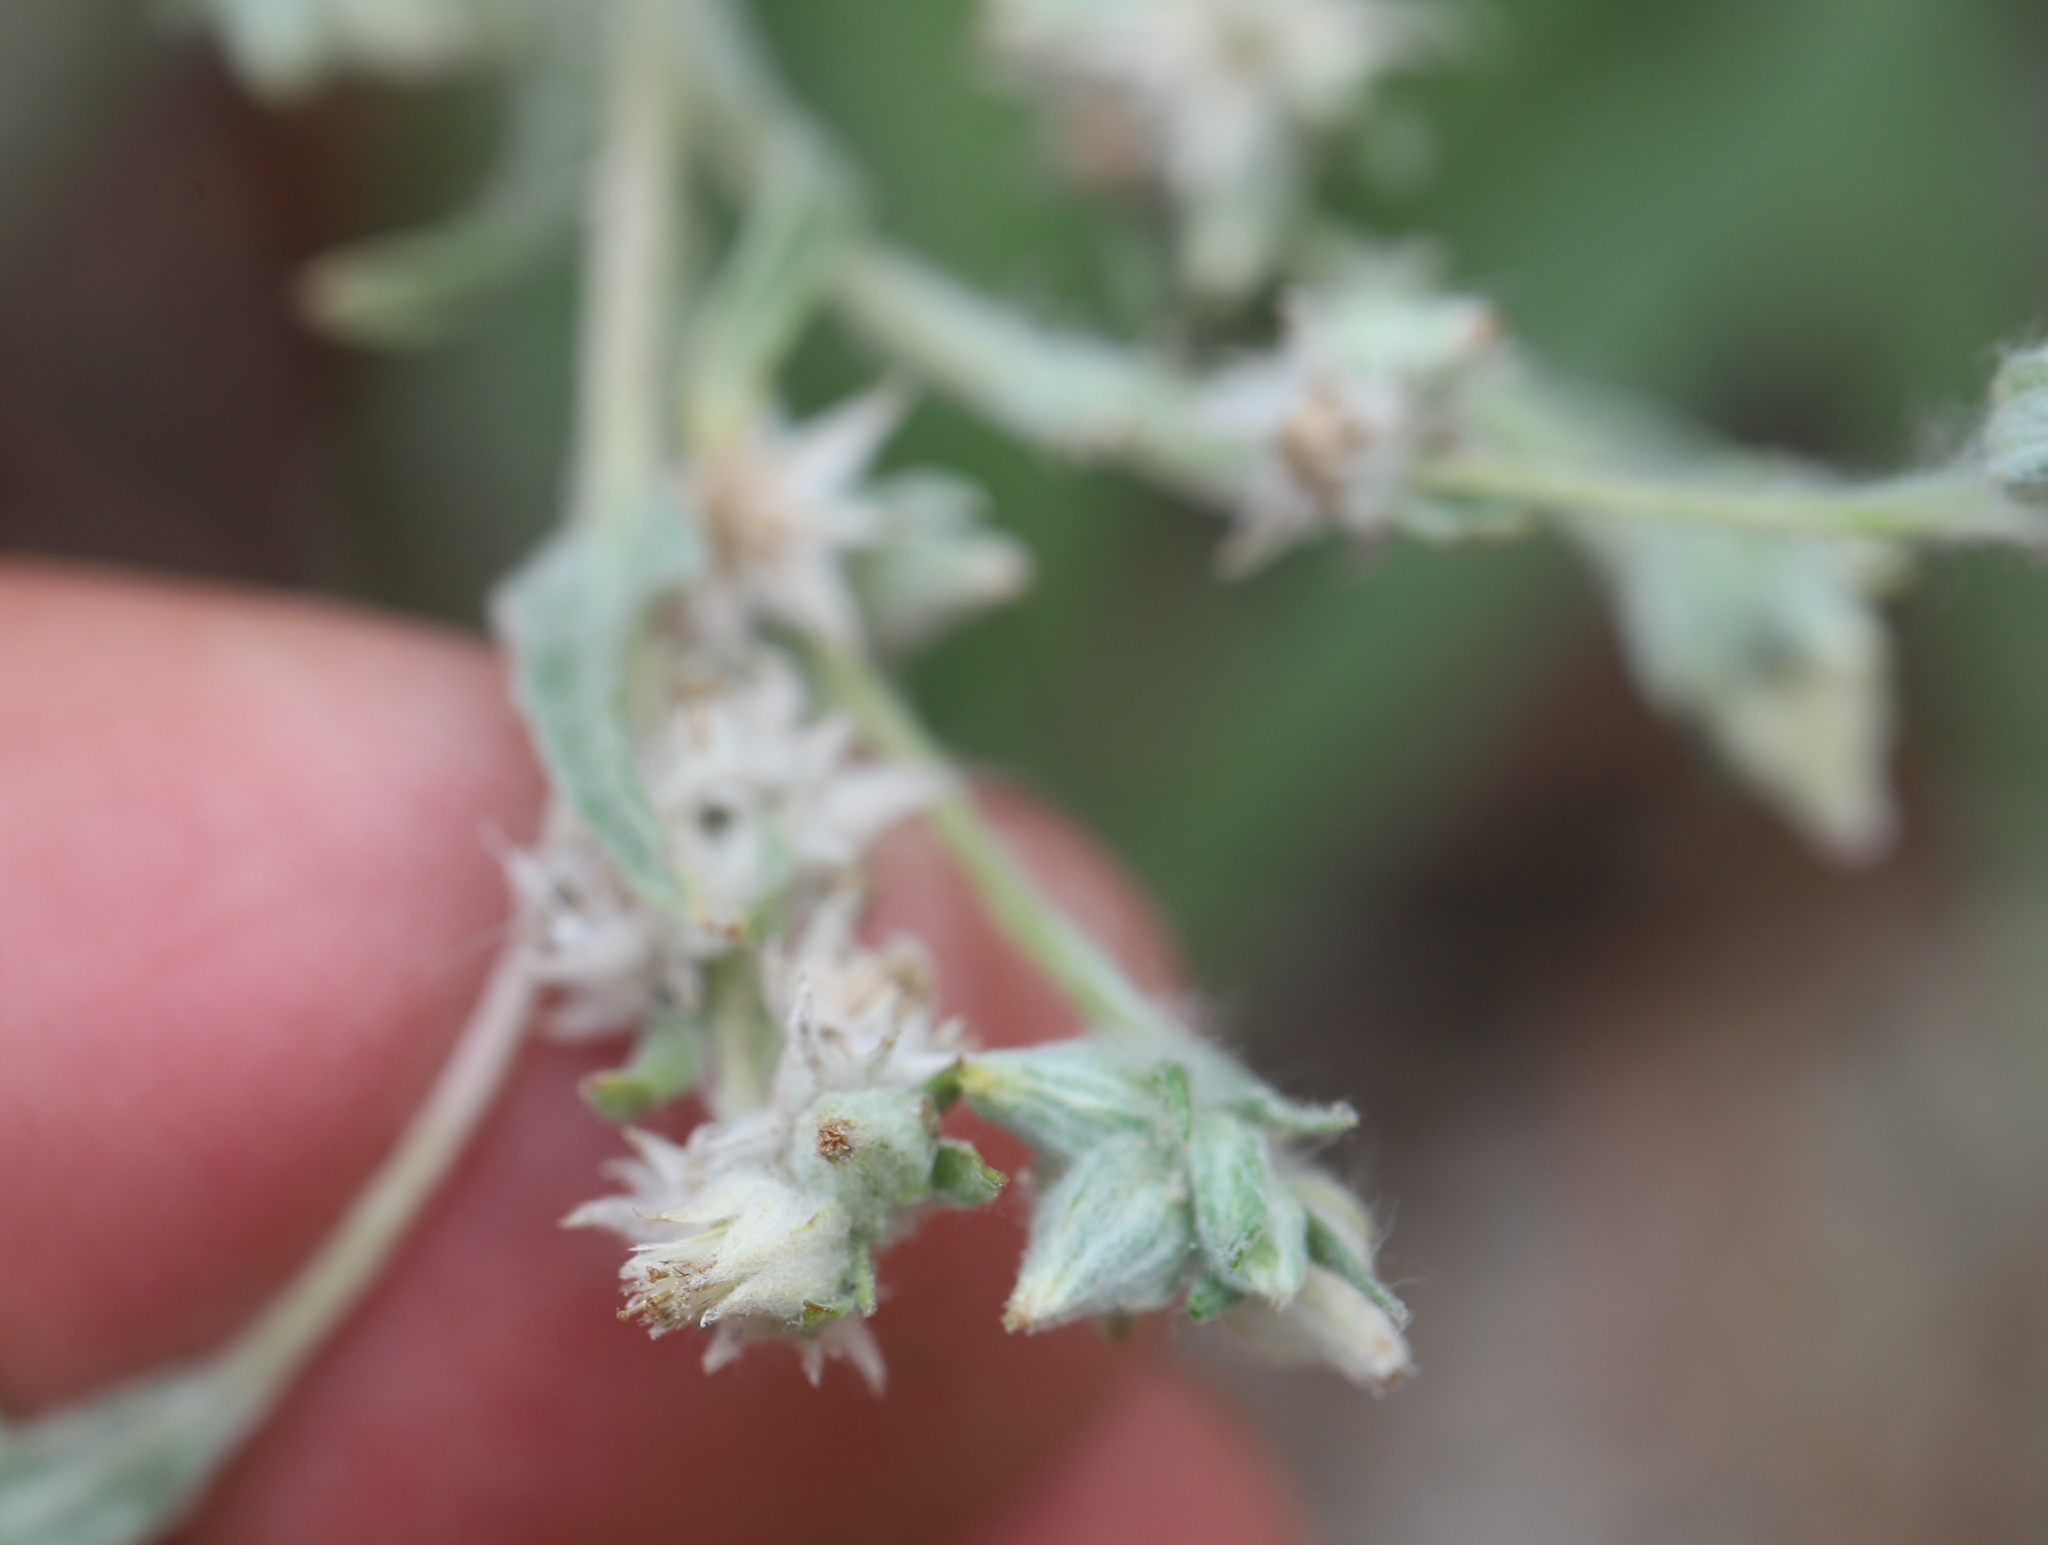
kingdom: Plantae
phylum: Tracheophyta
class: Magnoliopsida
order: Asterales
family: Asteraceae
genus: Filago
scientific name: Filago arvensis
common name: Field cudweed
